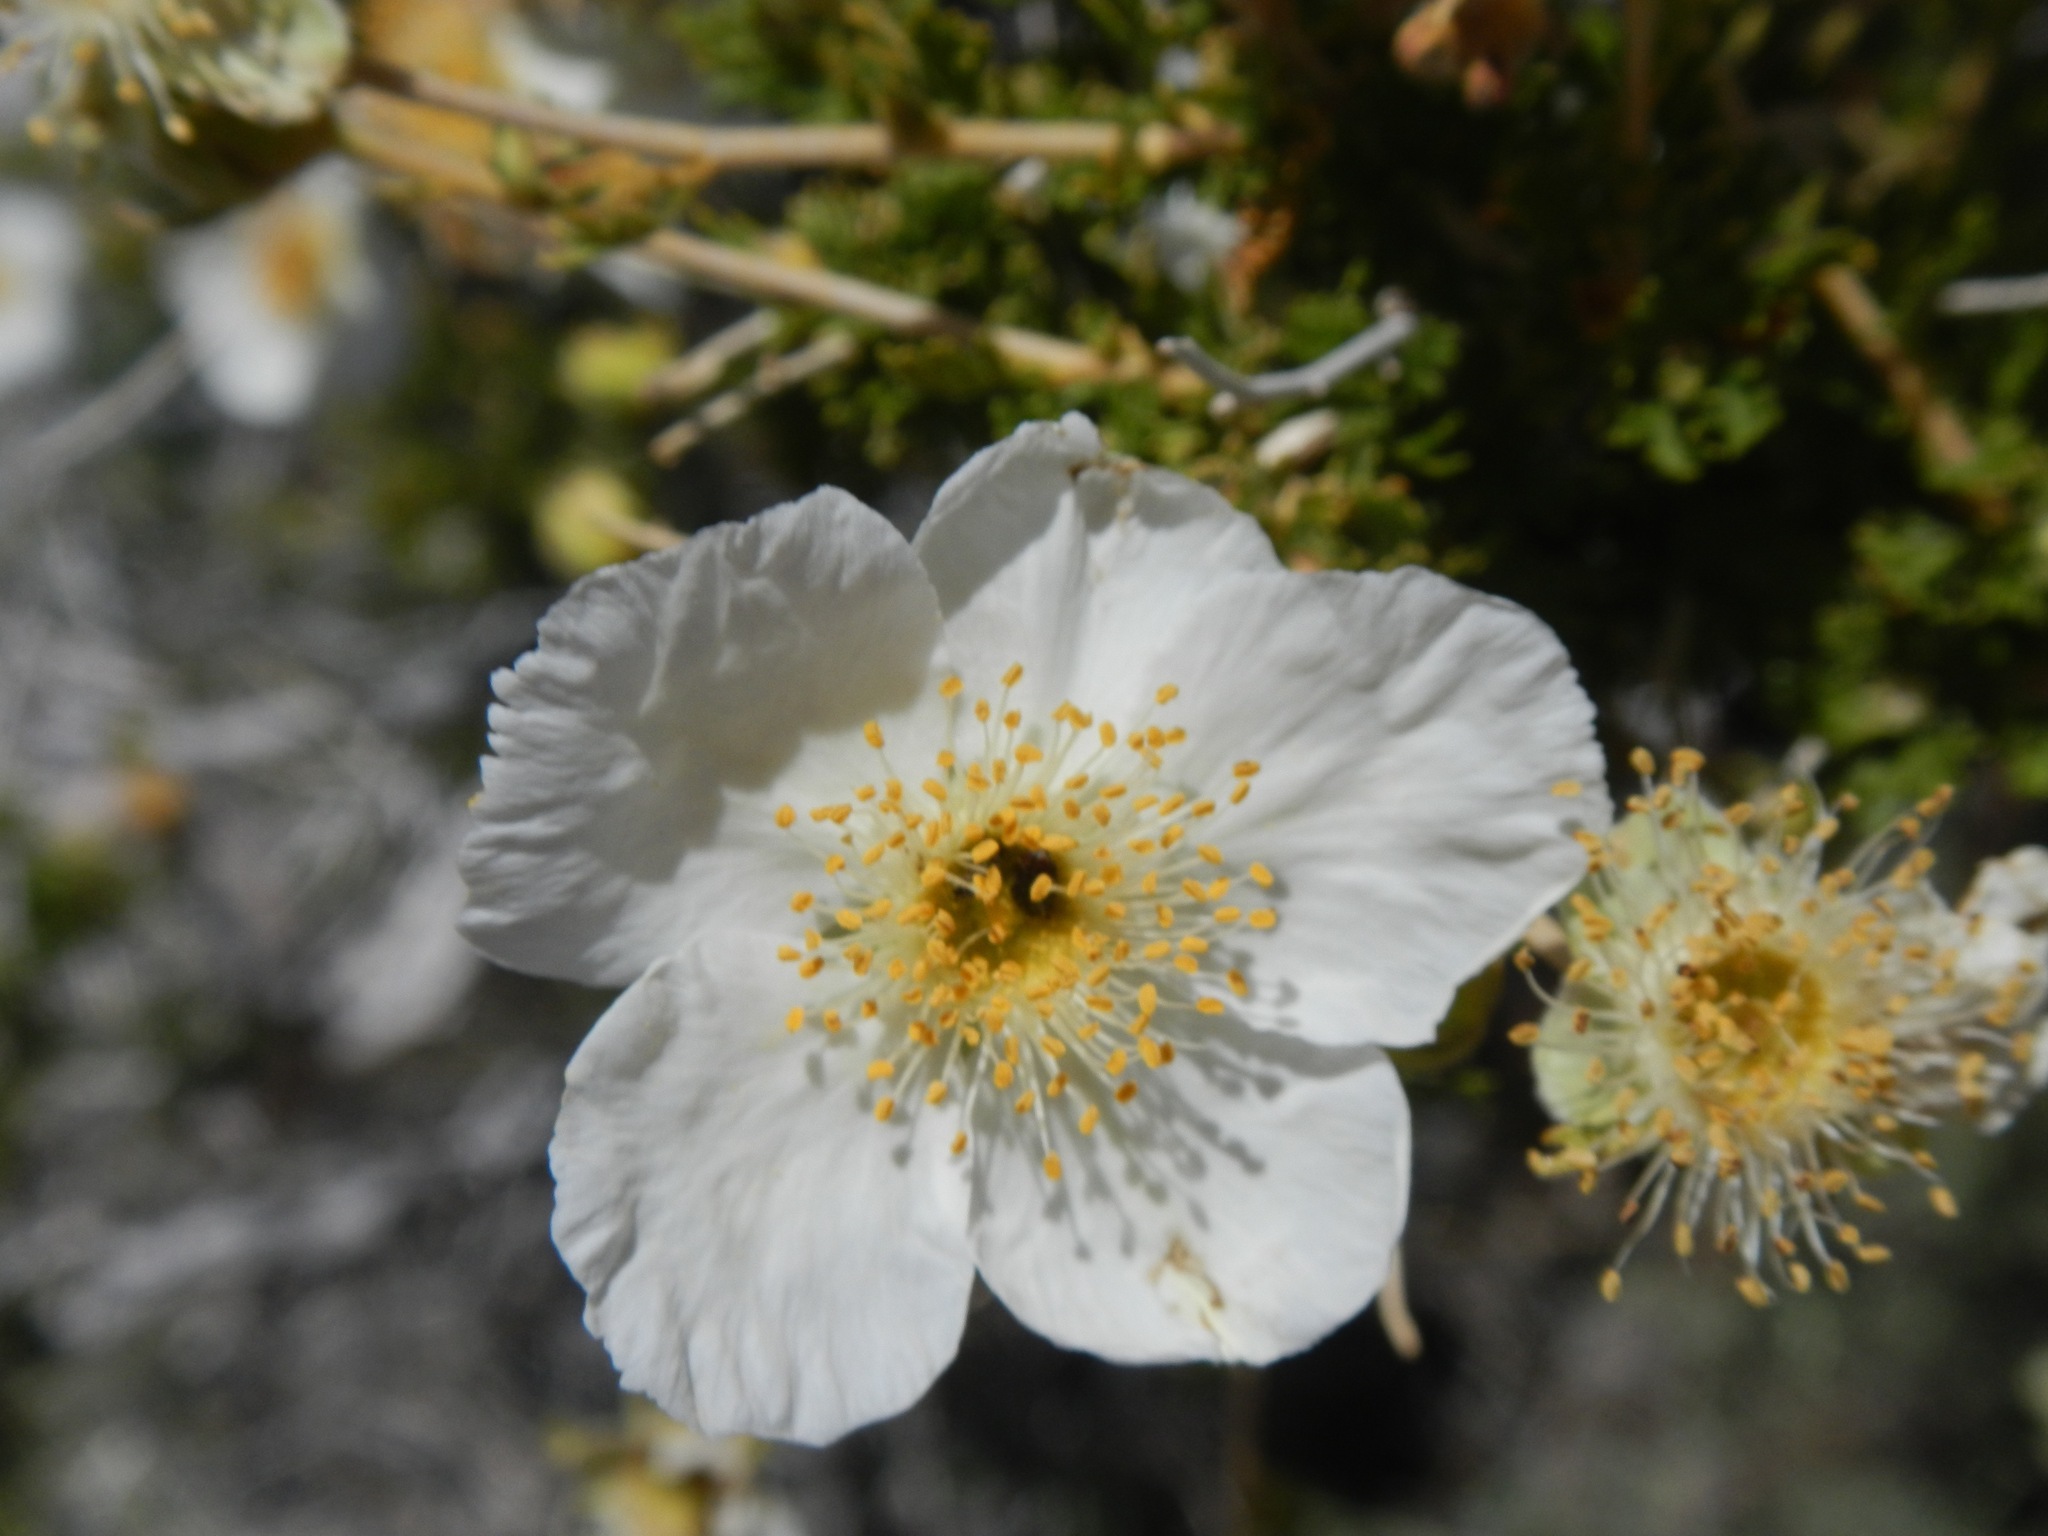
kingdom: Plantae
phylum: Tracheophyta
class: Magnoliopsida
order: Rosales
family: Rosaceae
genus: Purshia
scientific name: Purshia stansburiana
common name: Stansbury's cliffrose
